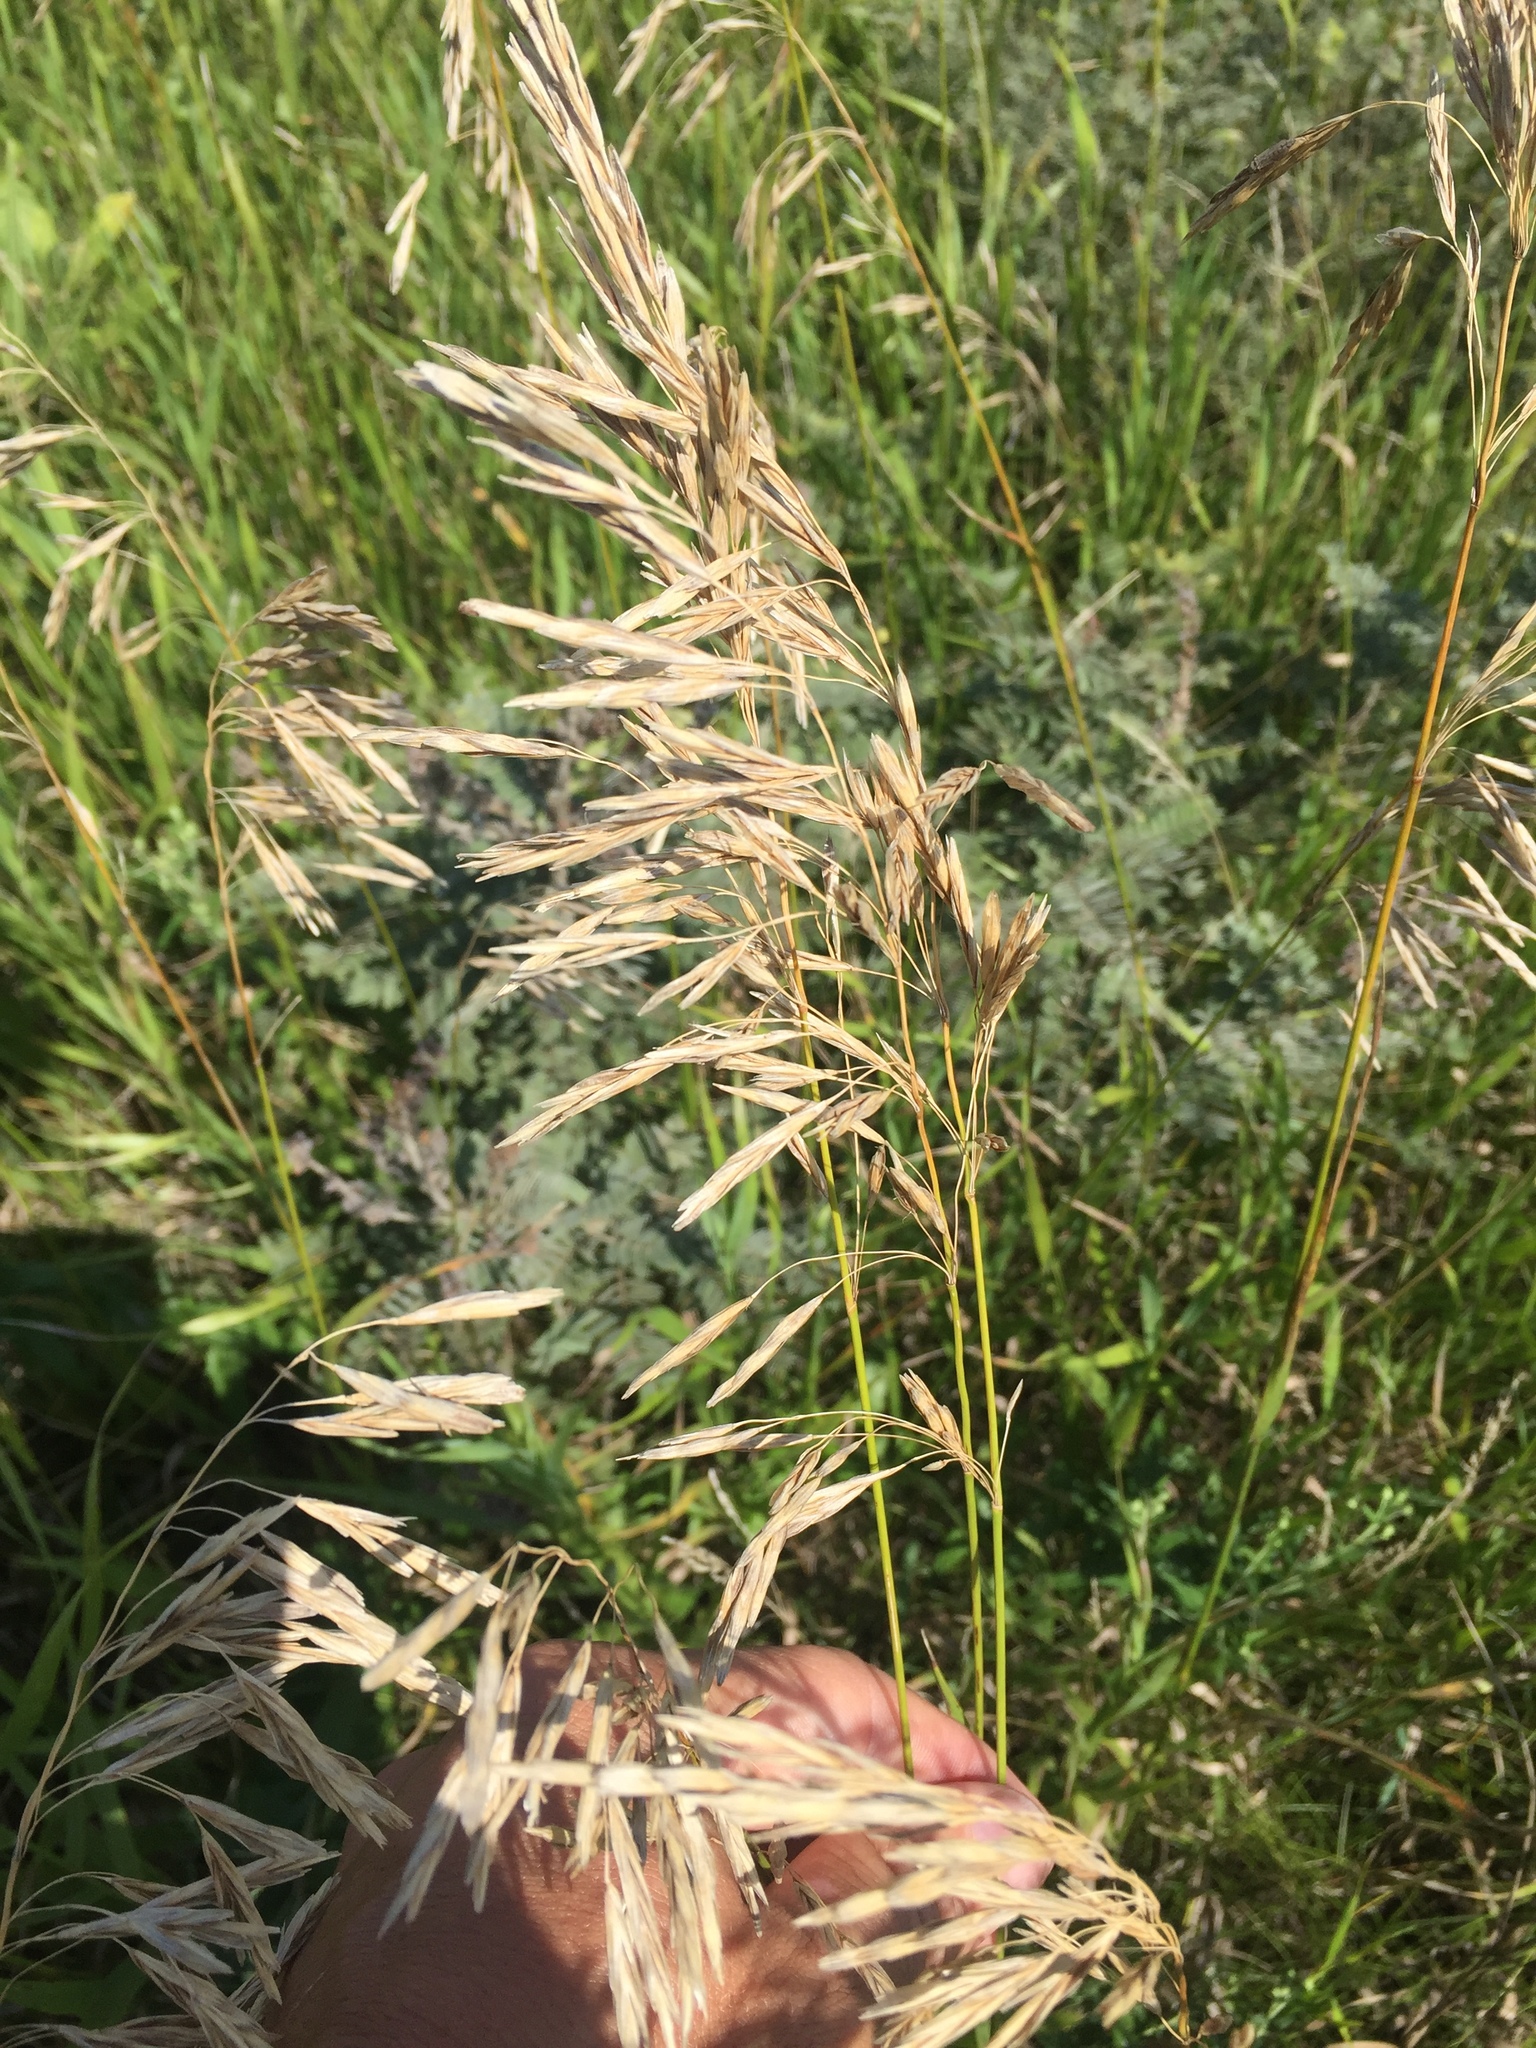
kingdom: Plantae
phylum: Tracheophyta
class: Liliopsida
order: Poales
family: Poaceae
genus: Bromus
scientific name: Bromus inermis
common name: Smooth brome
